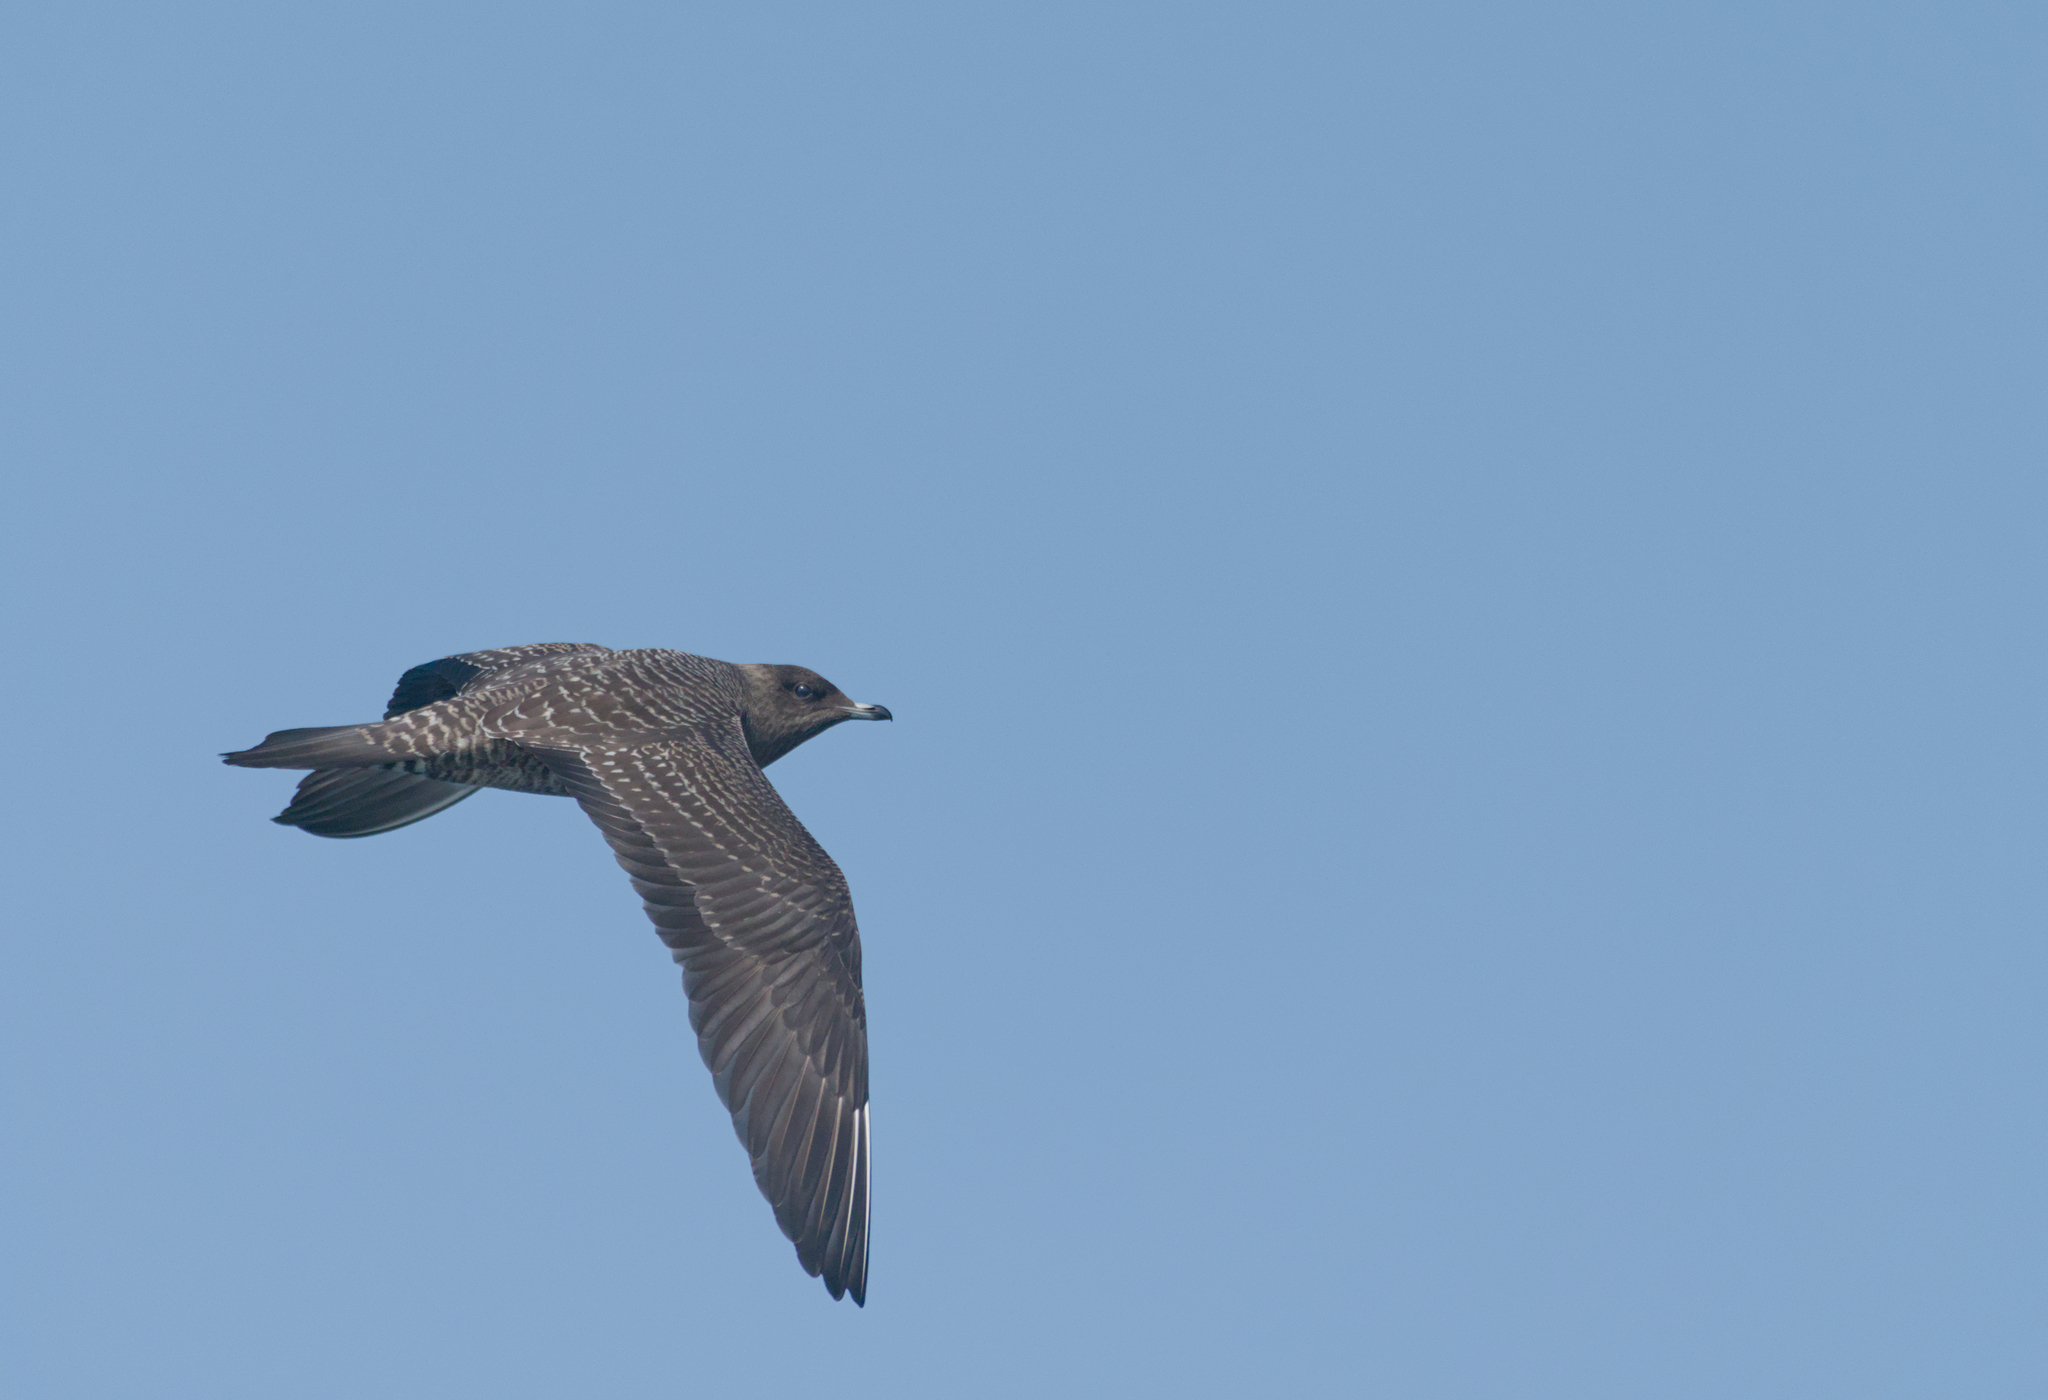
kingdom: Animalia
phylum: Chordata
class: Aves
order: Charadriiformes
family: Stercorariidae
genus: Stercorarius
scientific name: Stercorarius longicaudus
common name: Long-tailed jaeger
